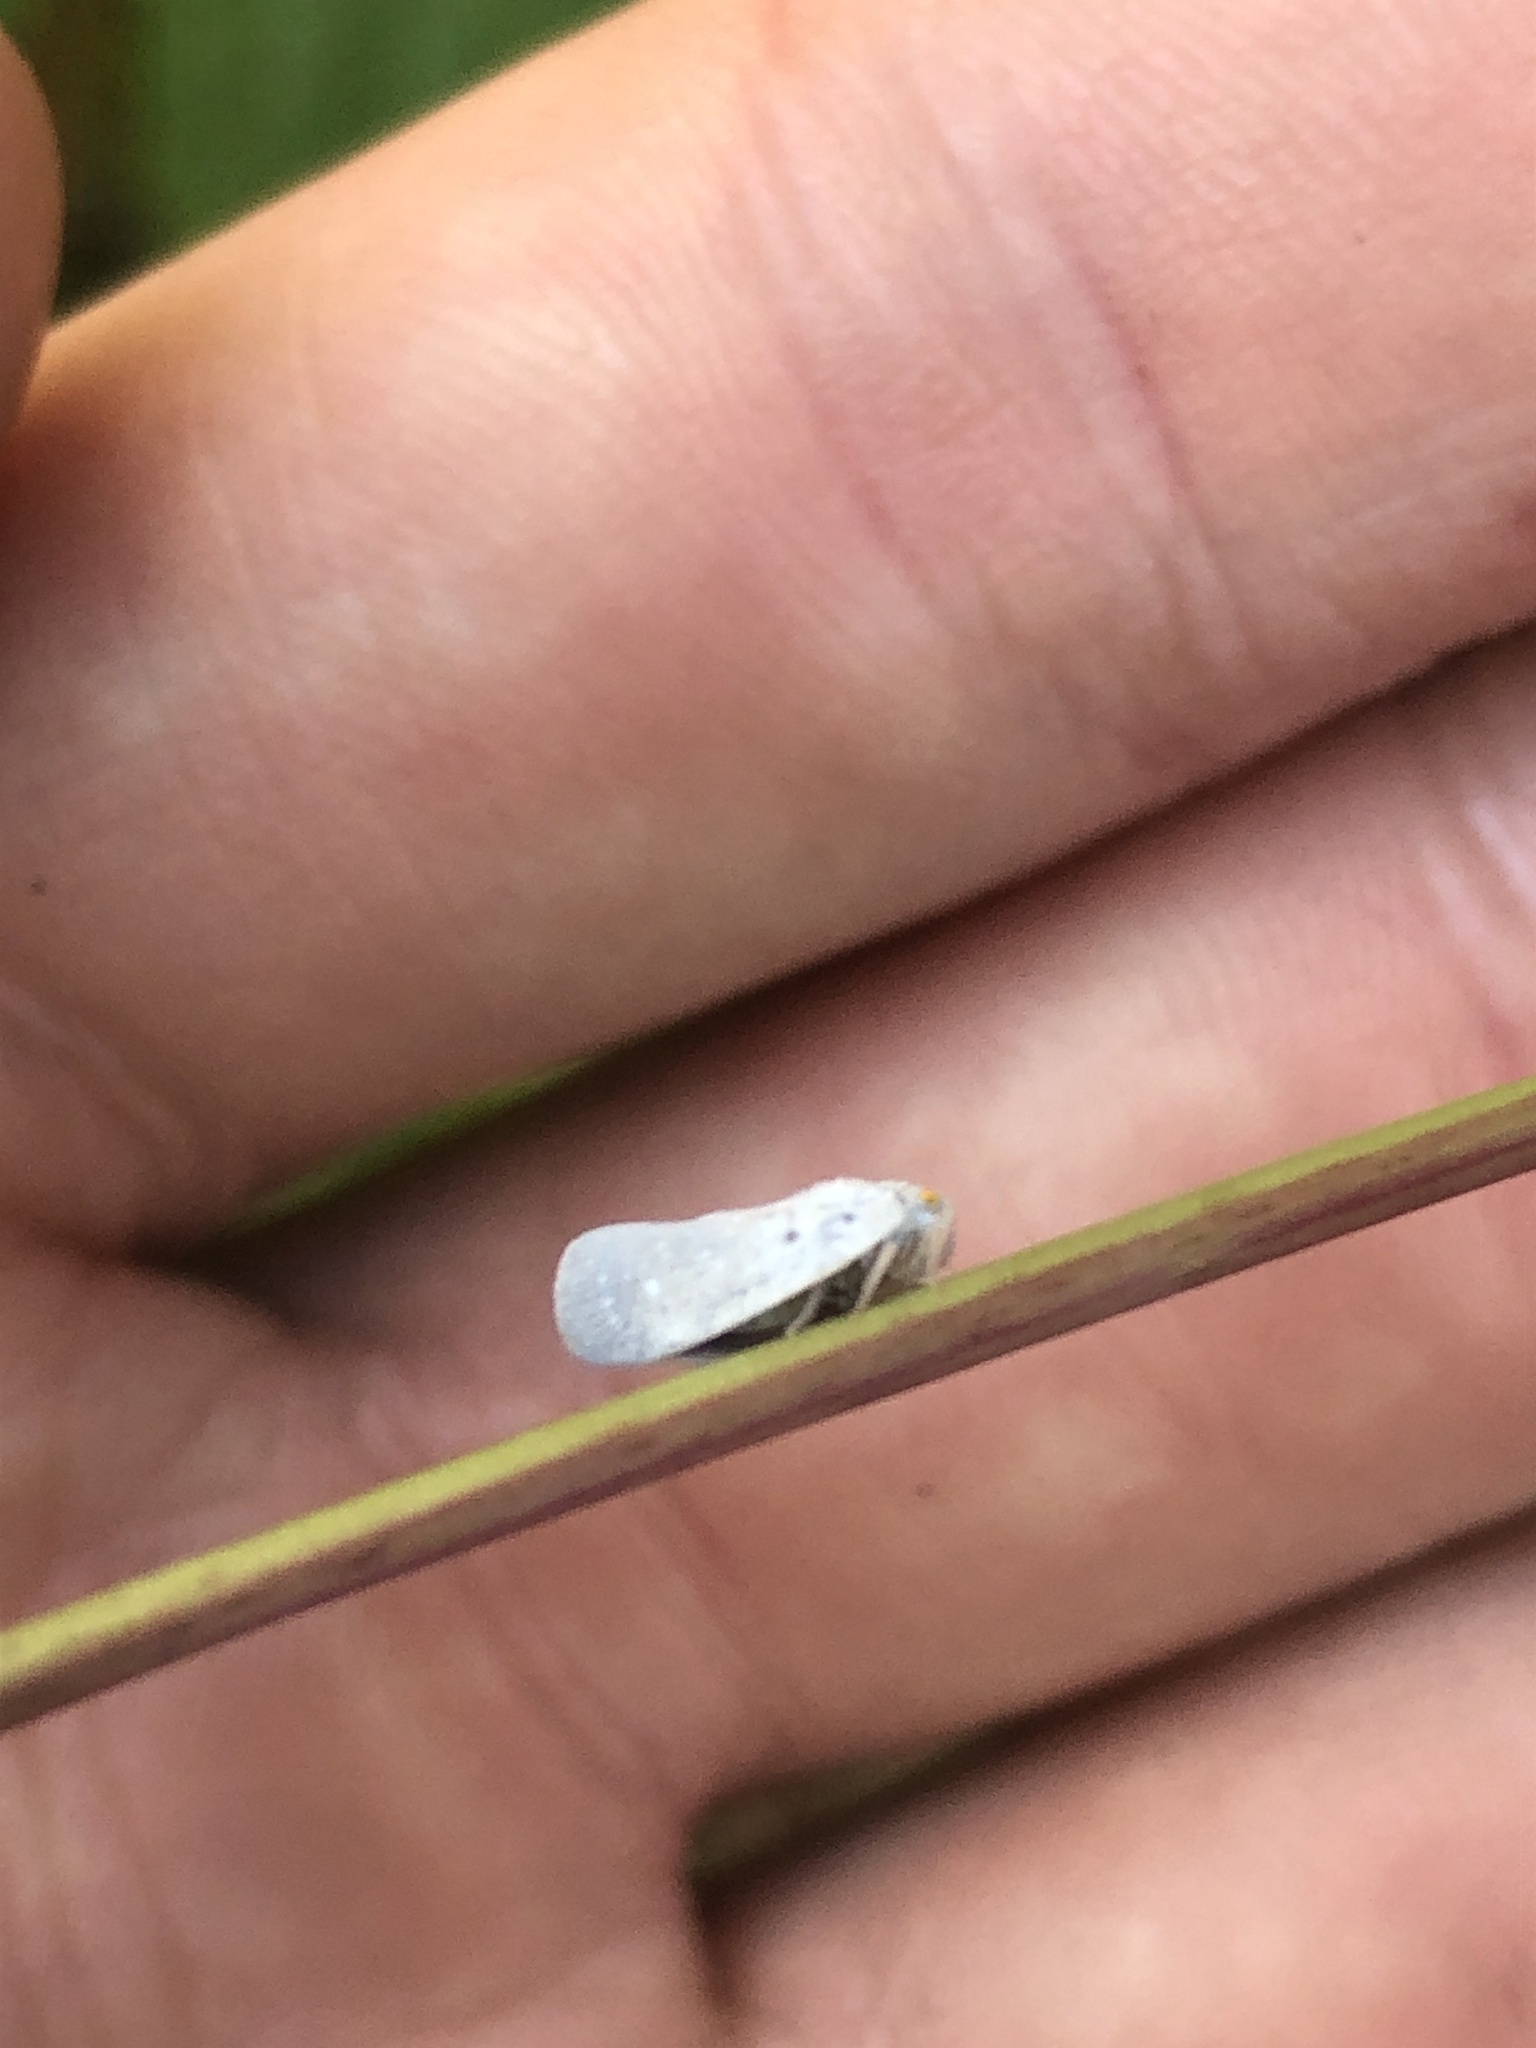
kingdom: Animalia
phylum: Arthropoda
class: Insecta
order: Hemiptera
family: Flatidae
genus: Metcalfa
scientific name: Metcalfa pruinosa
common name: Citrus flatid planthopper
